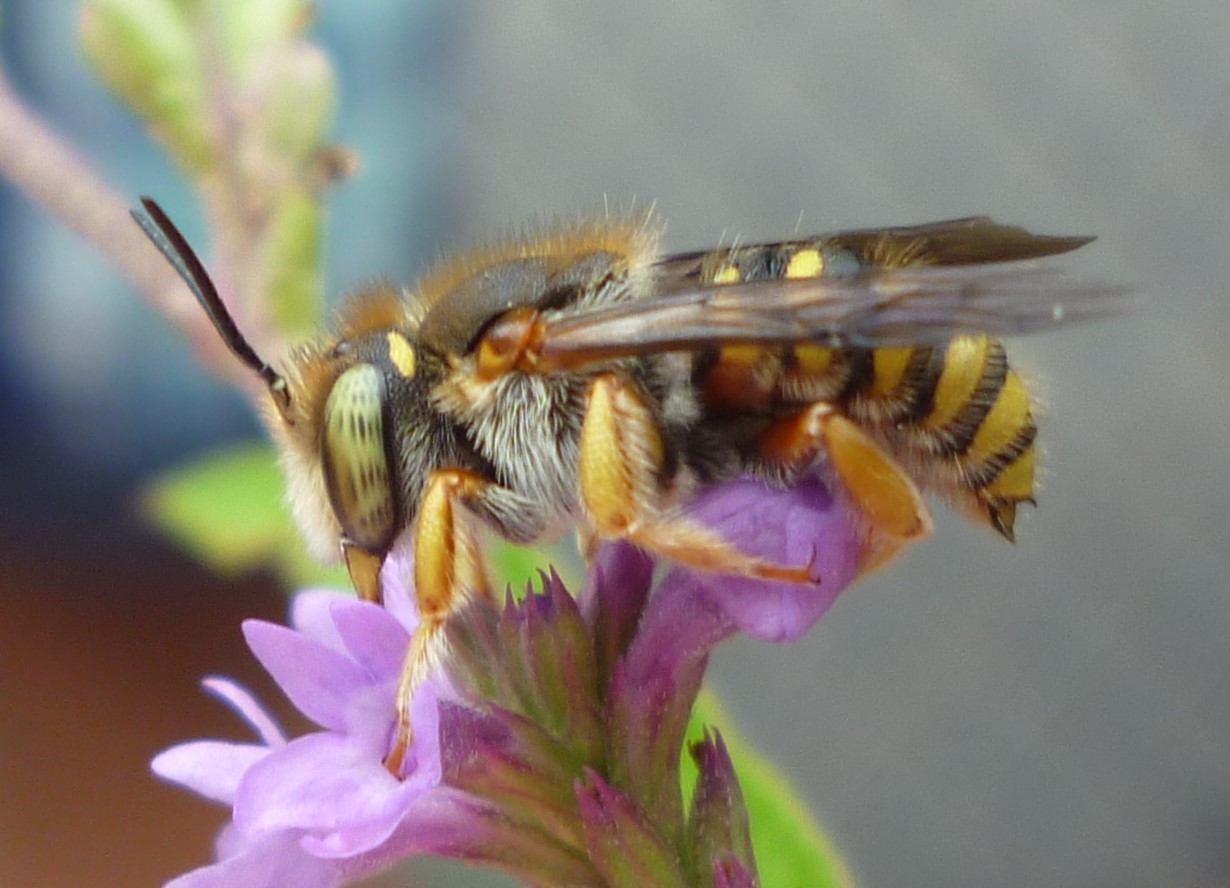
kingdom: Animalia
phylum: Arthropoda
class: Insecta
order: Hymenoptera
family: Megachilidae
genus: Anthidium
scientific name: Anthidium oblongatum
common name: Oblong wool carder bee
